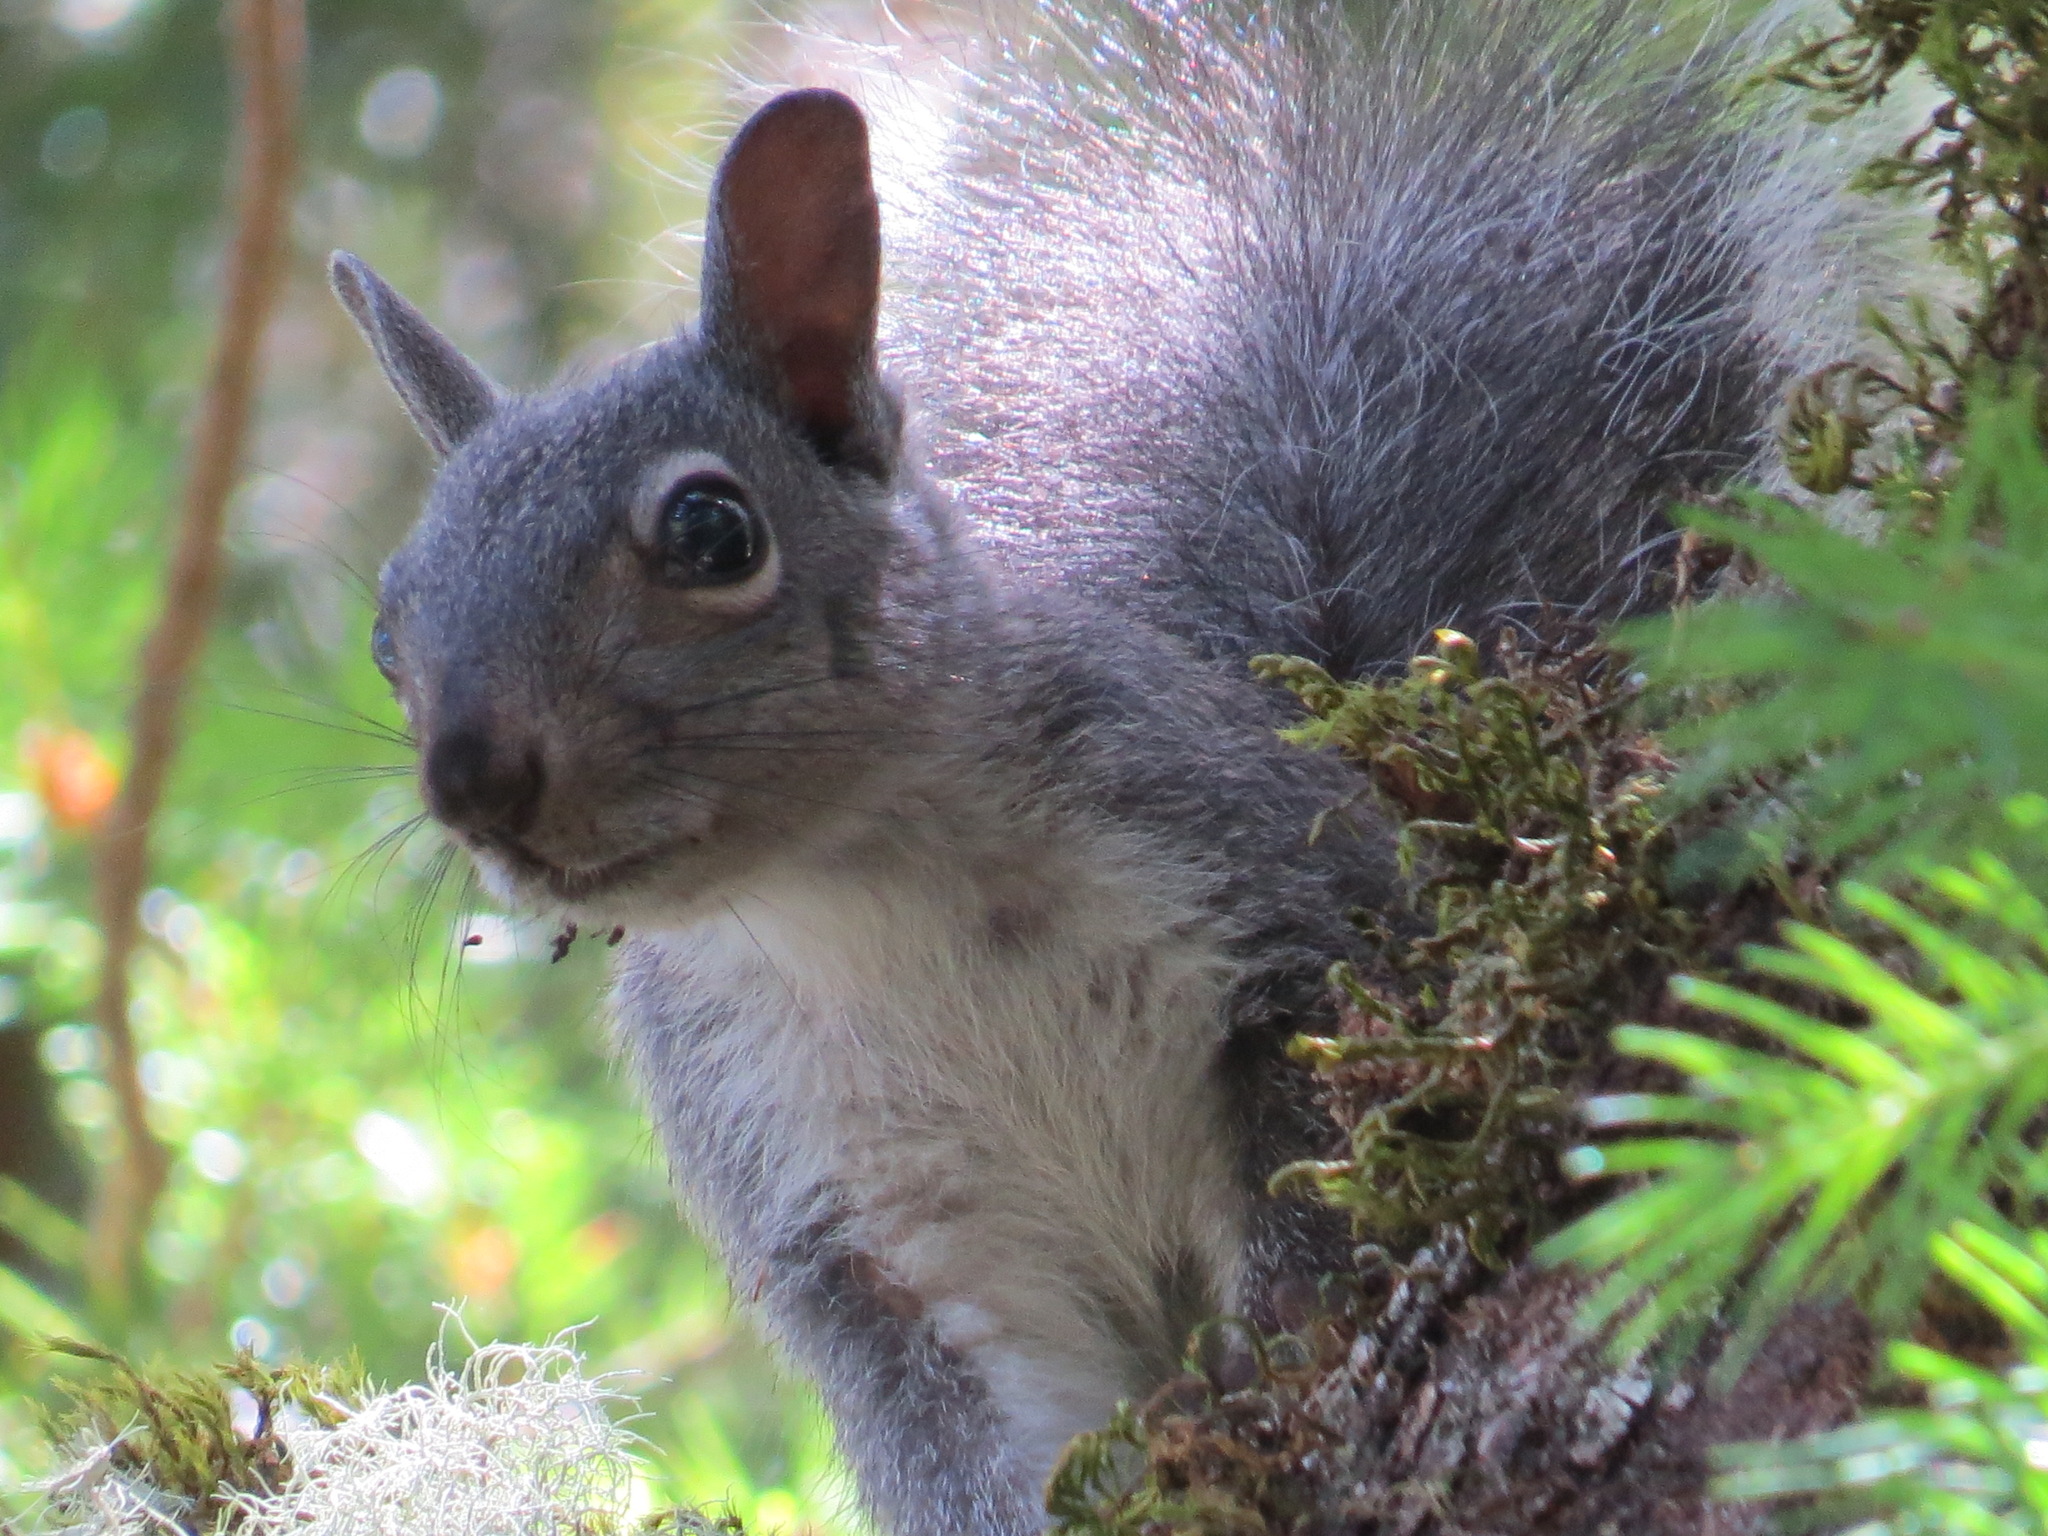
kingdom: Animalia
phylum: Chordata
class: Mammalia
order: Rodentia
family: Sciuridae
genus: Sciurus
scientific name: Sciurus griseus
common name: Western gray squirrel
